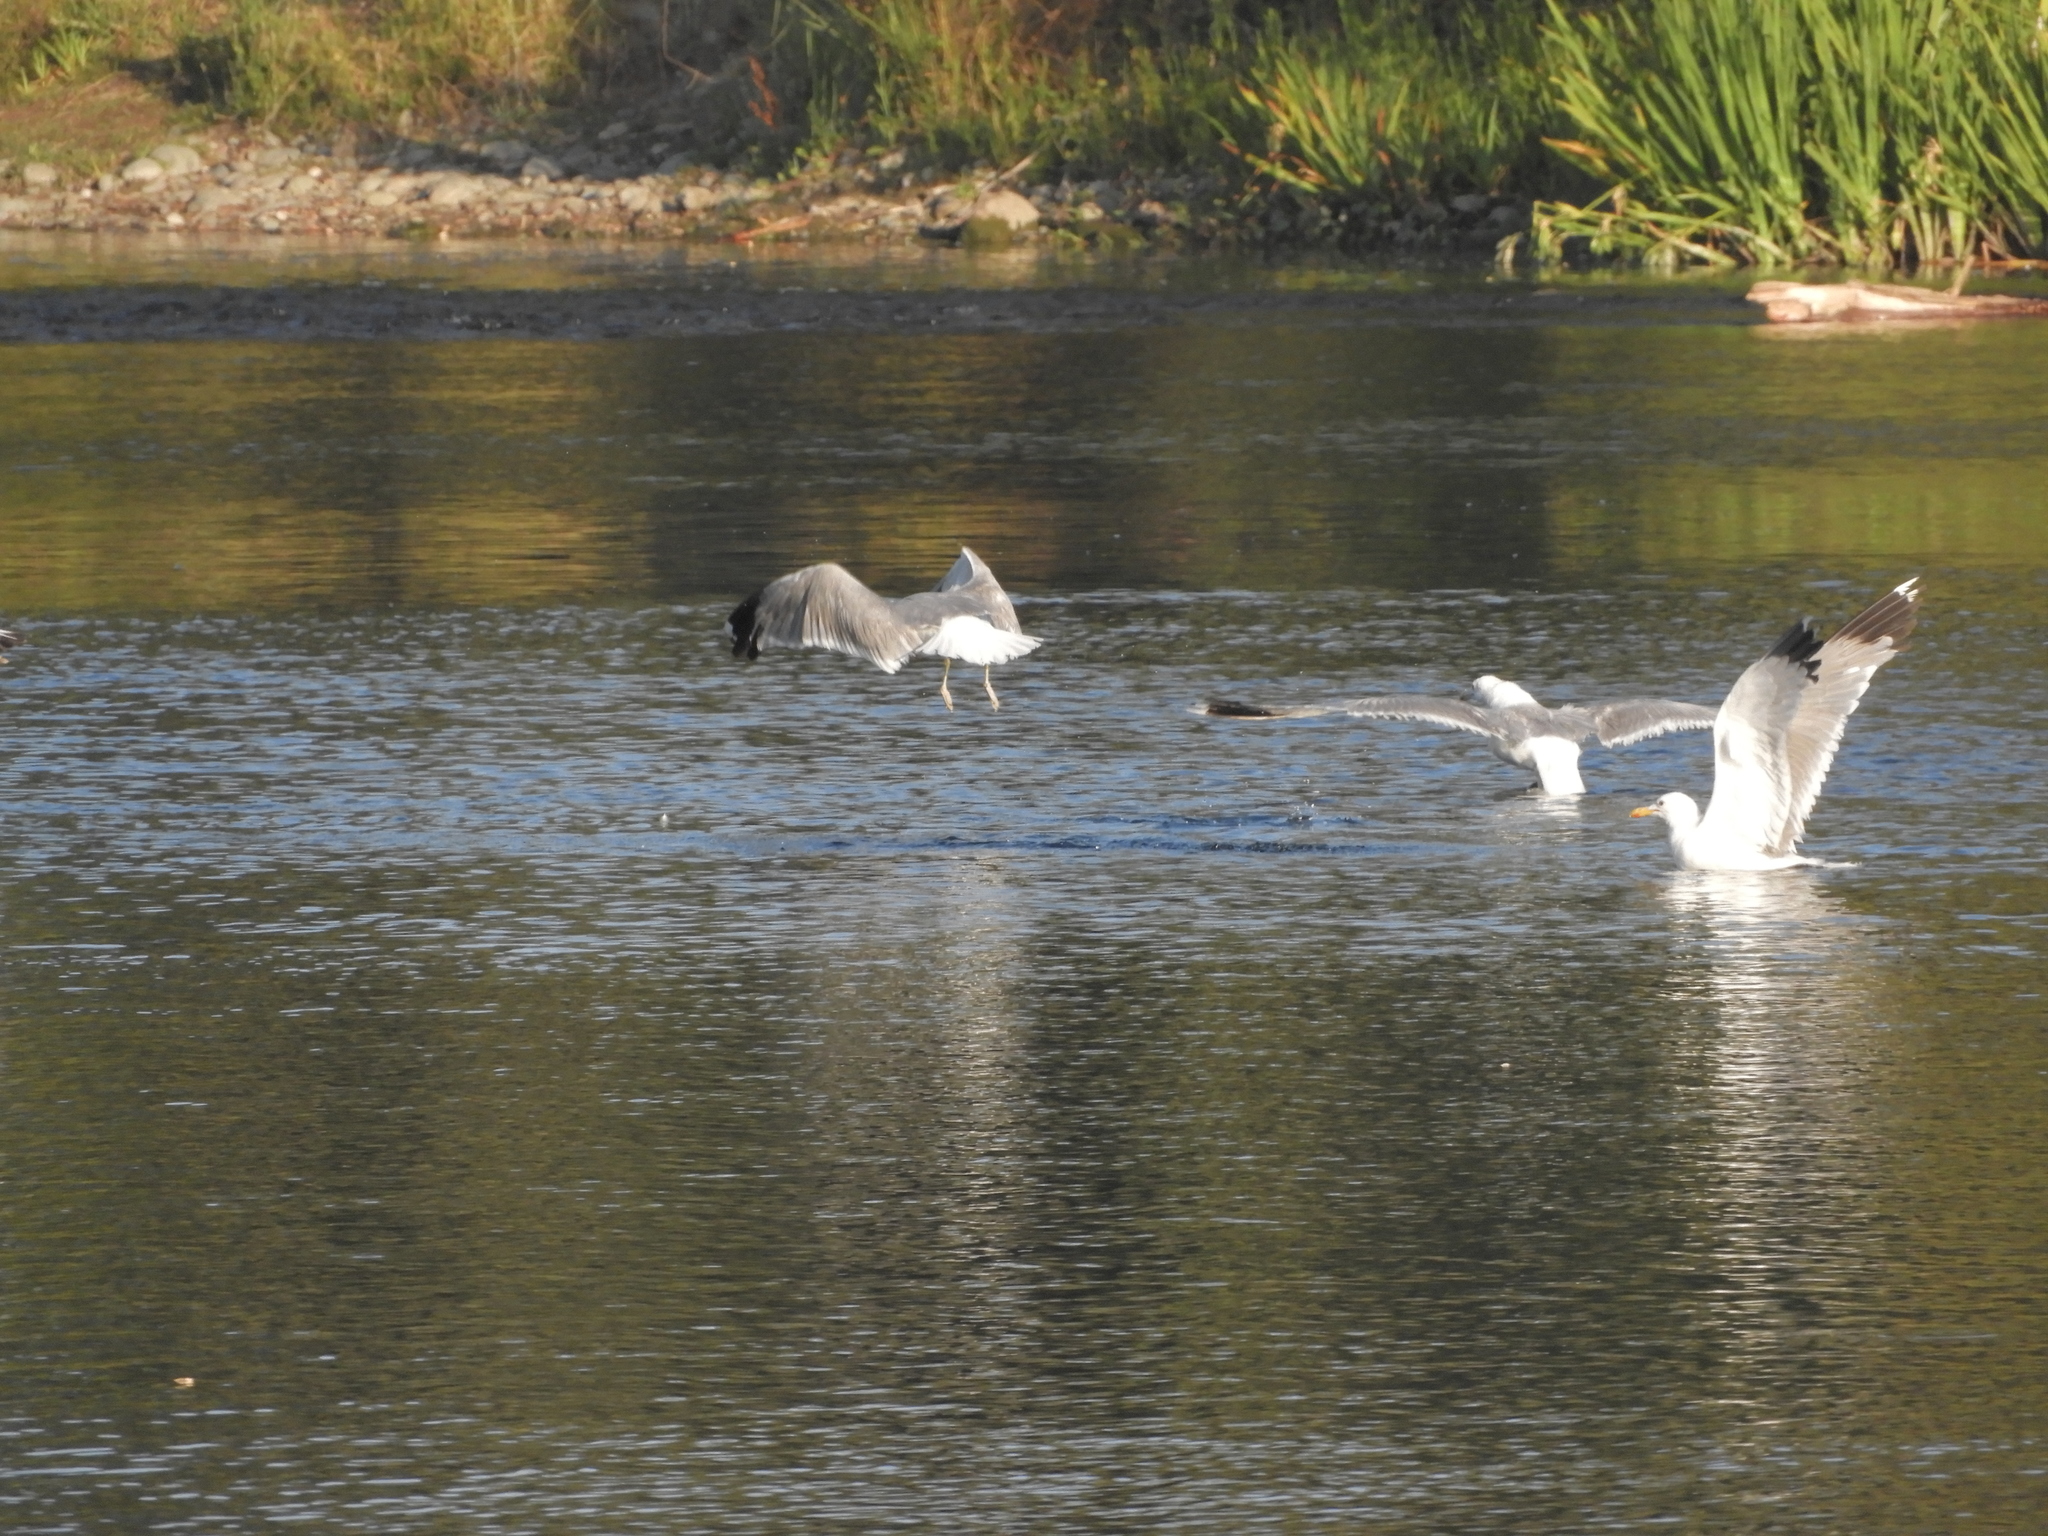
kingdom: Animalia
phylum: Chordata
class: Aves
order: Charadriiformes
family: Laridae
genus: Larus
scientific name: Larus californicus
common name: California gull
